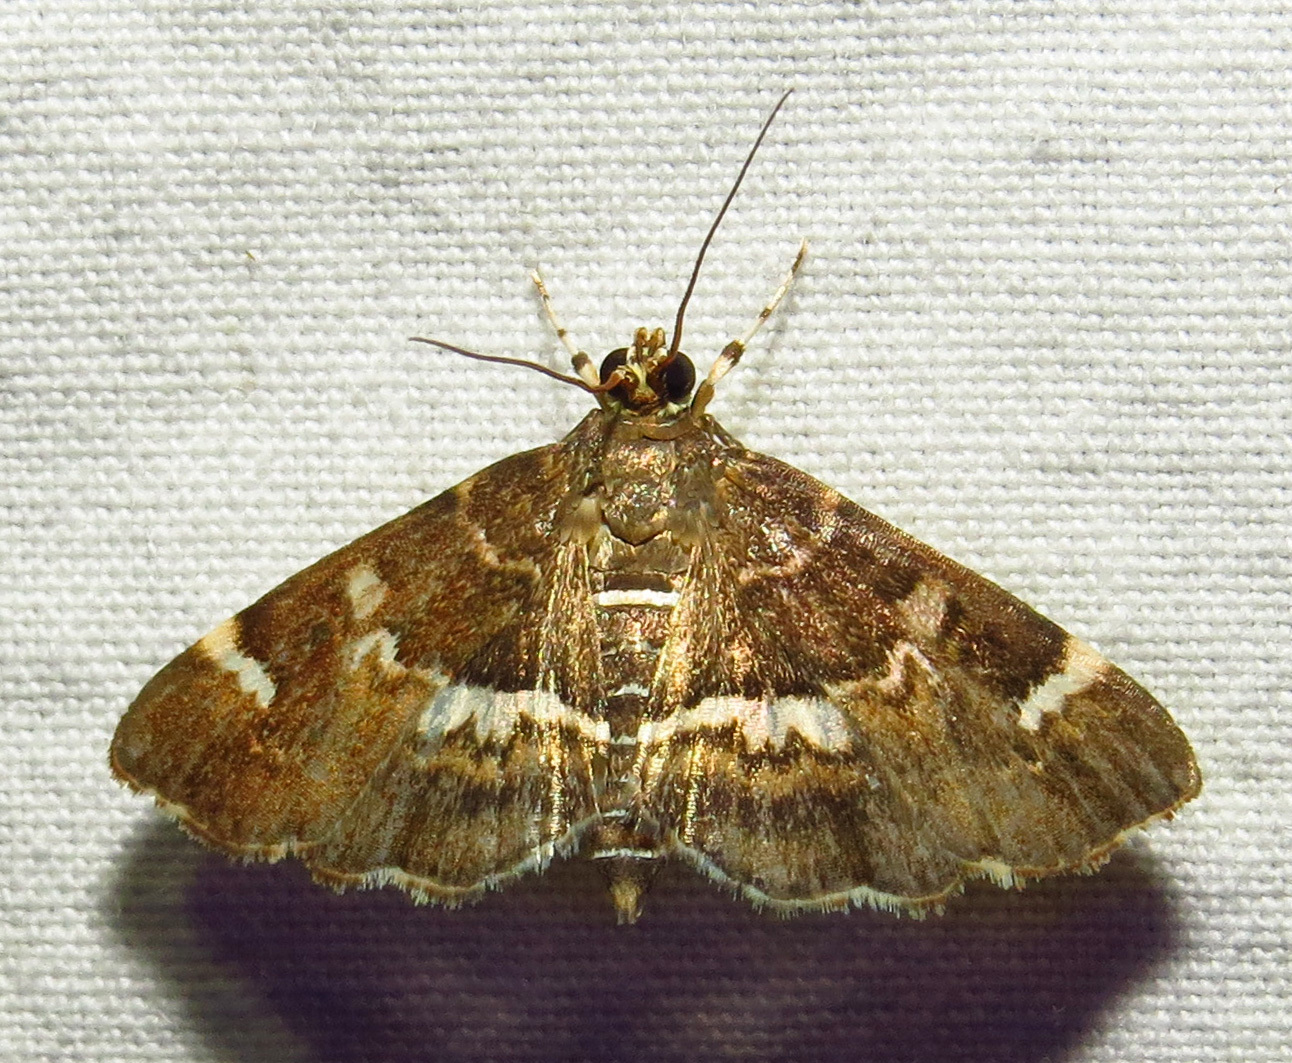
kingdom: Animalia
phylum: Arthropoda
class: Insecta
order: Lepidoptera
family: Crambidae
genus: Hymenia
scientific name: Hymenia perspectalis
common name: Spotted beet webworm
